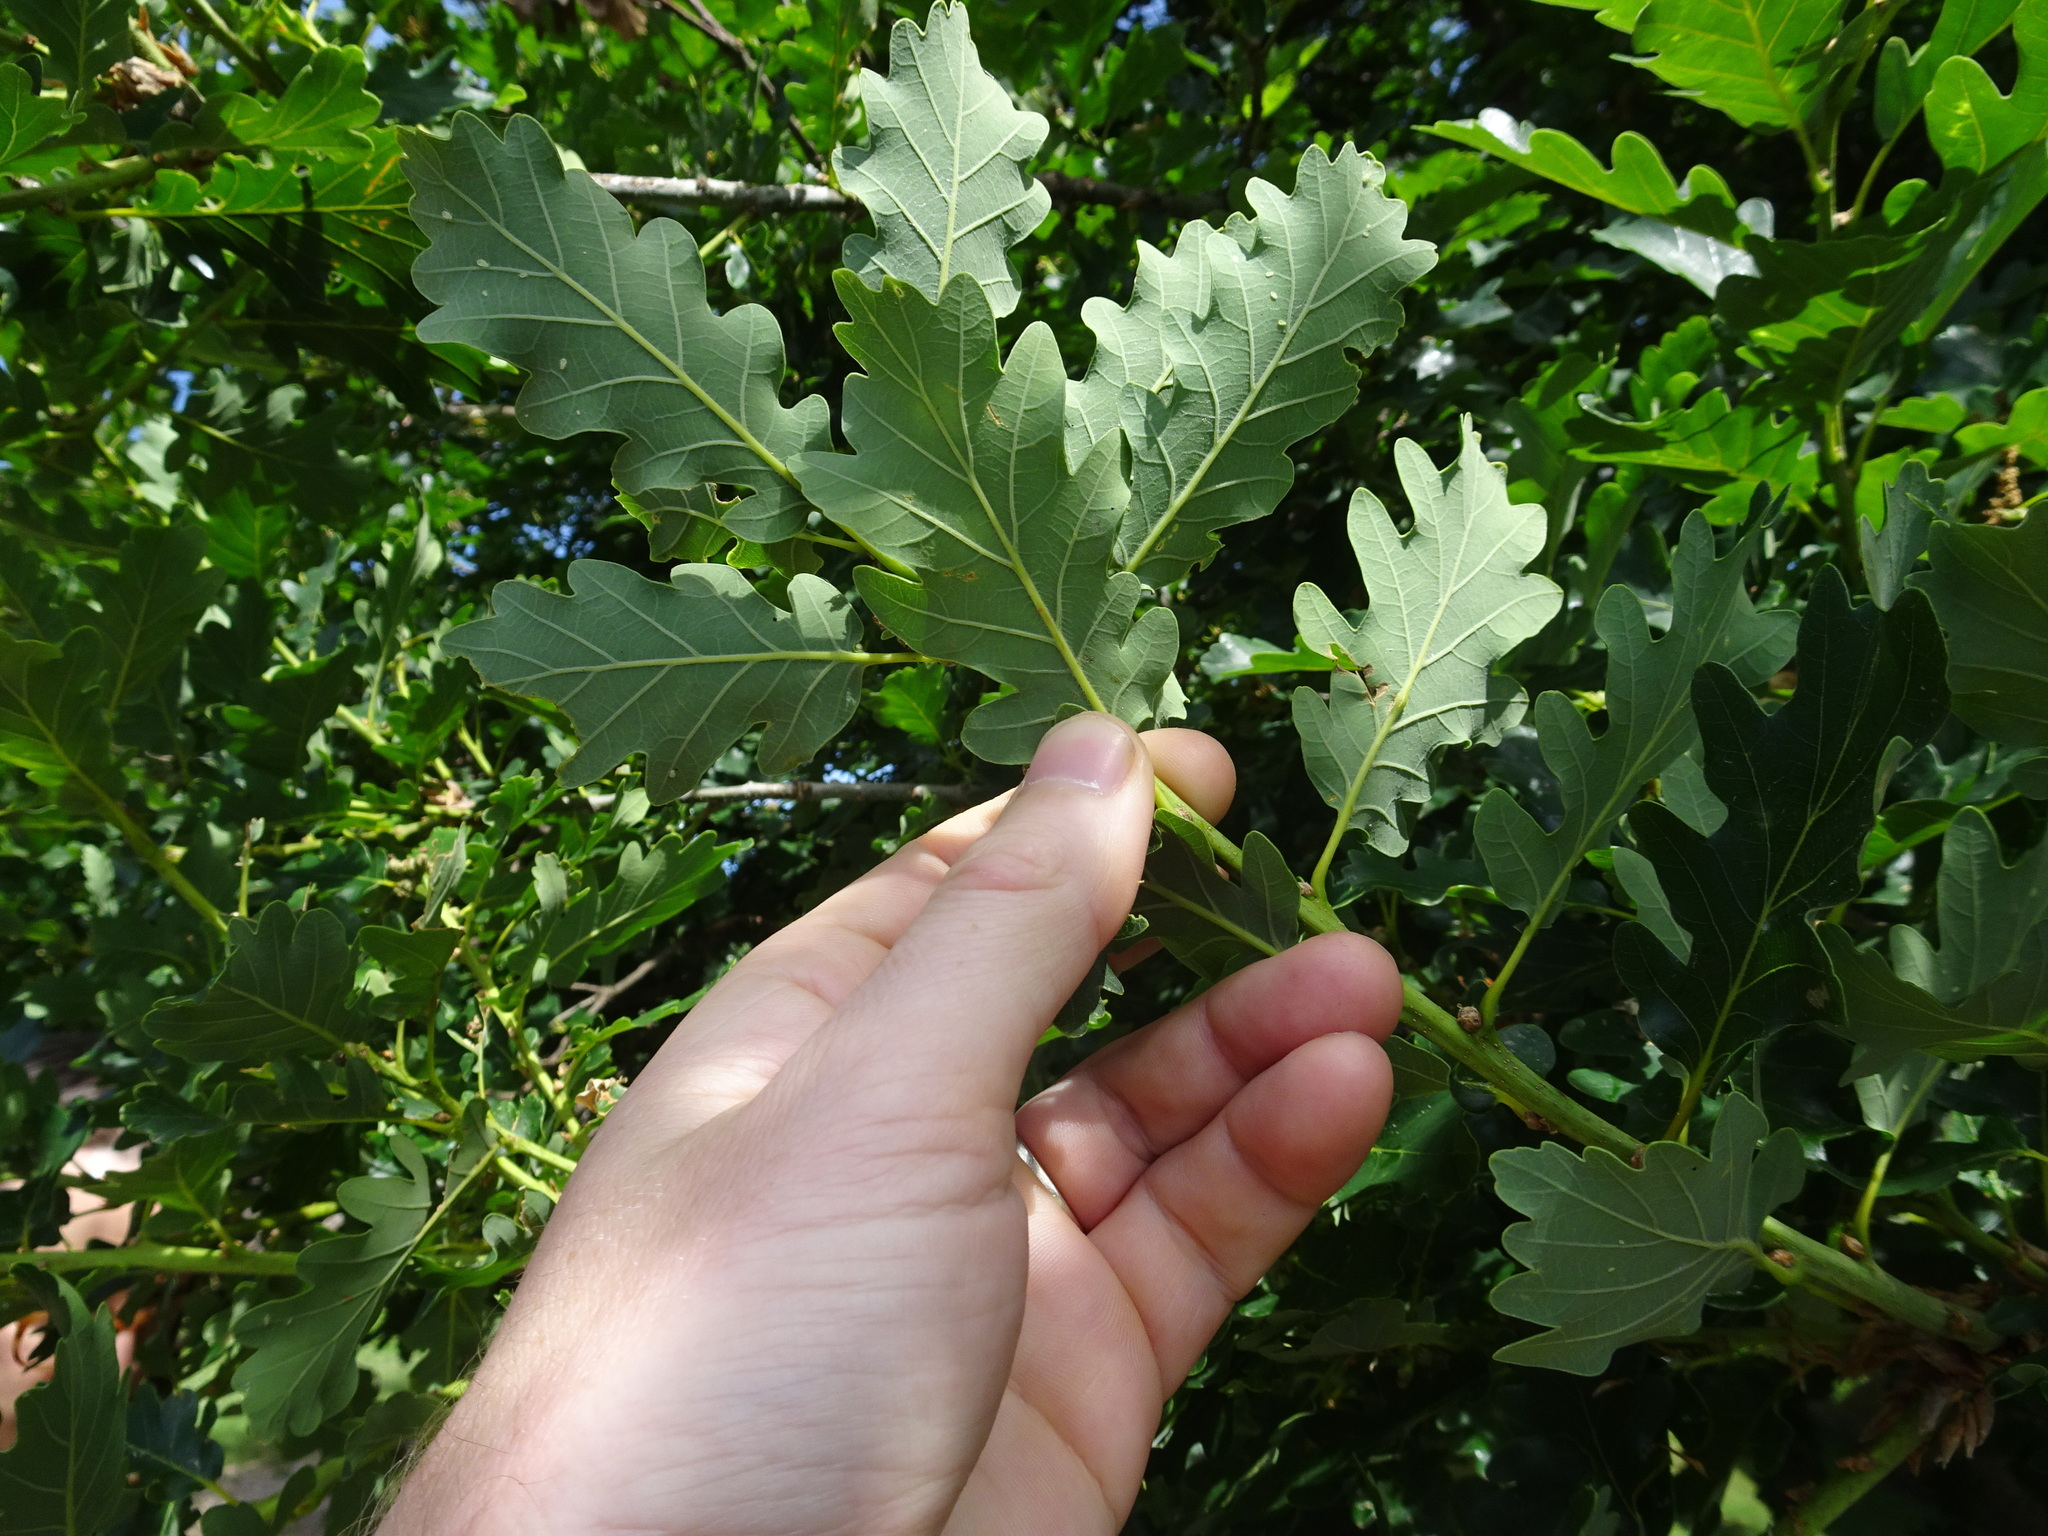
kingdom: Plantae
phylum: Tracheophyta
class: Magnoliopsida
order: Fagales
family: Fagaceae
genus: Quercus
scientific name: Quercus petraea
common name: Sessile oak
